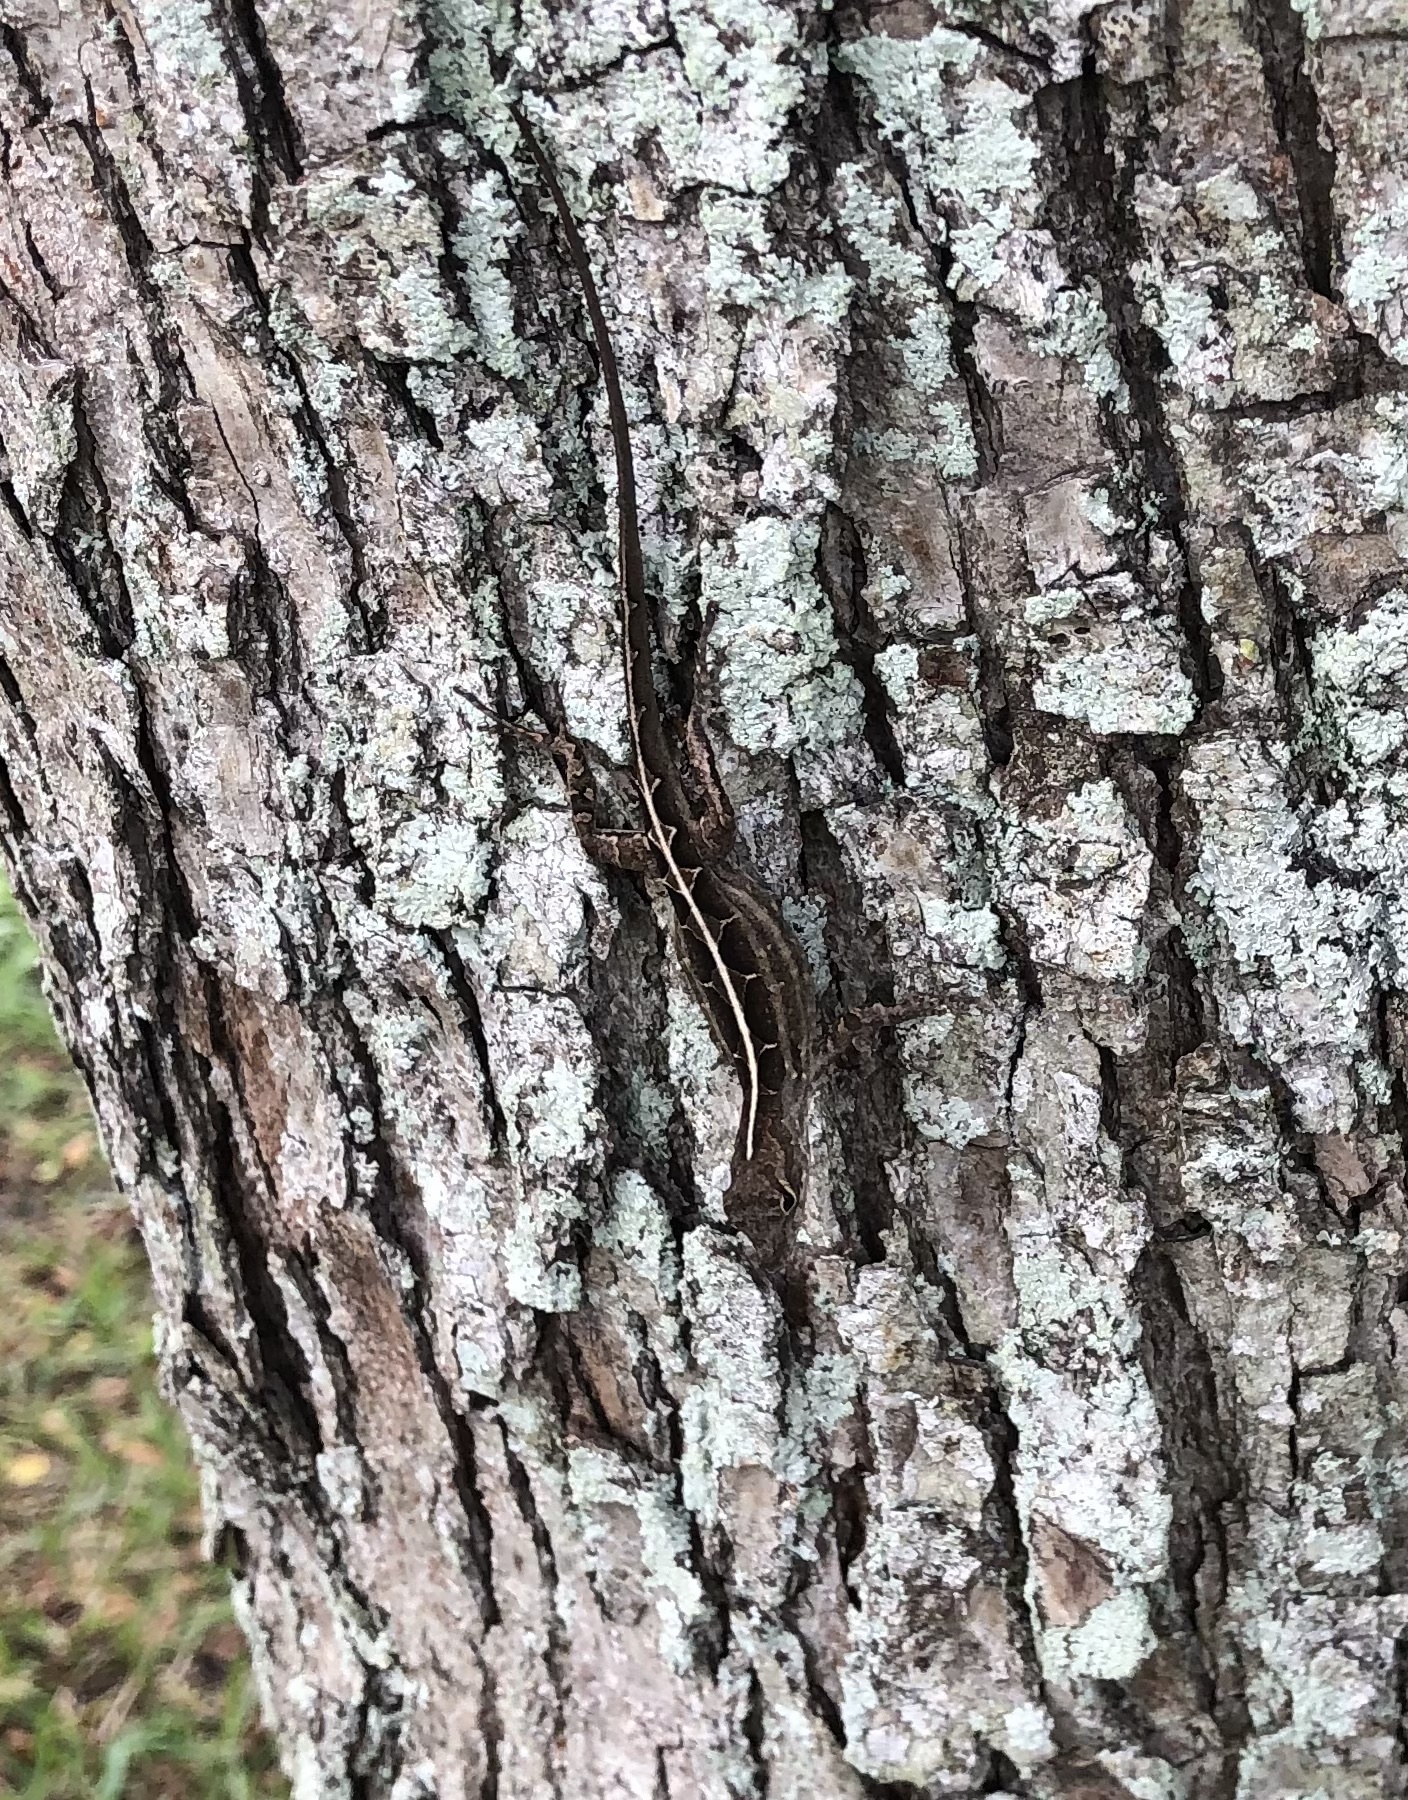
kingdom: Animalia
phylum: Chordata
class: Squamata
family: Dactyloidae
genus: Anolis
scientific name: Anolis sagrei
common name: Brown anole
